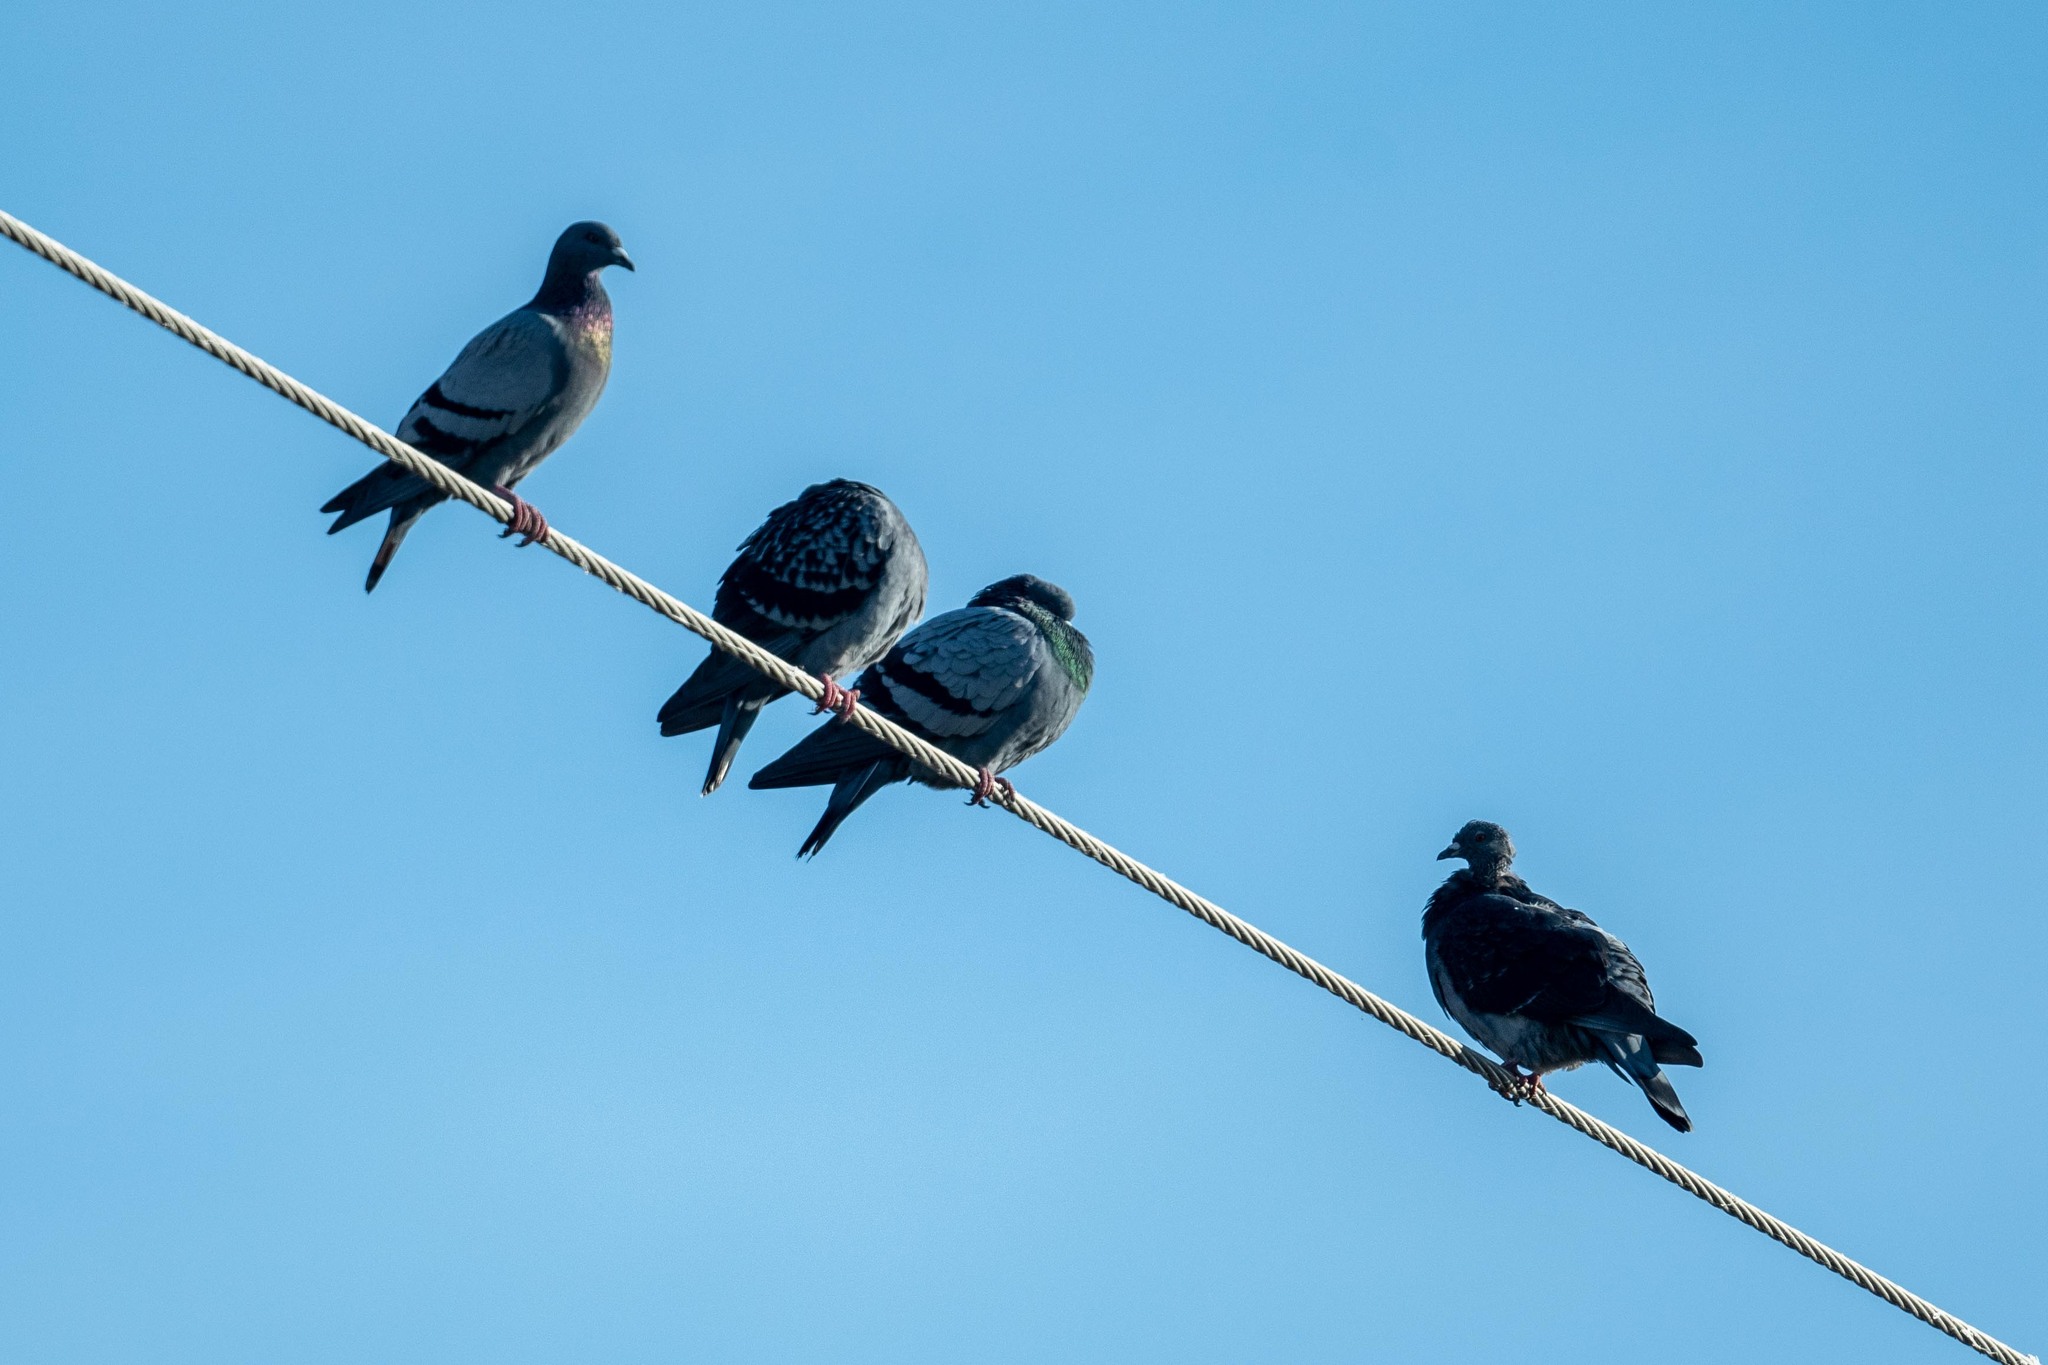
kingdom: Animalia
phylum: Chordata
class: Aves
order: Columbiformes
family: Columbidae
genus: Columba
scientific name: Columba livia
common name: Rock pigeon
